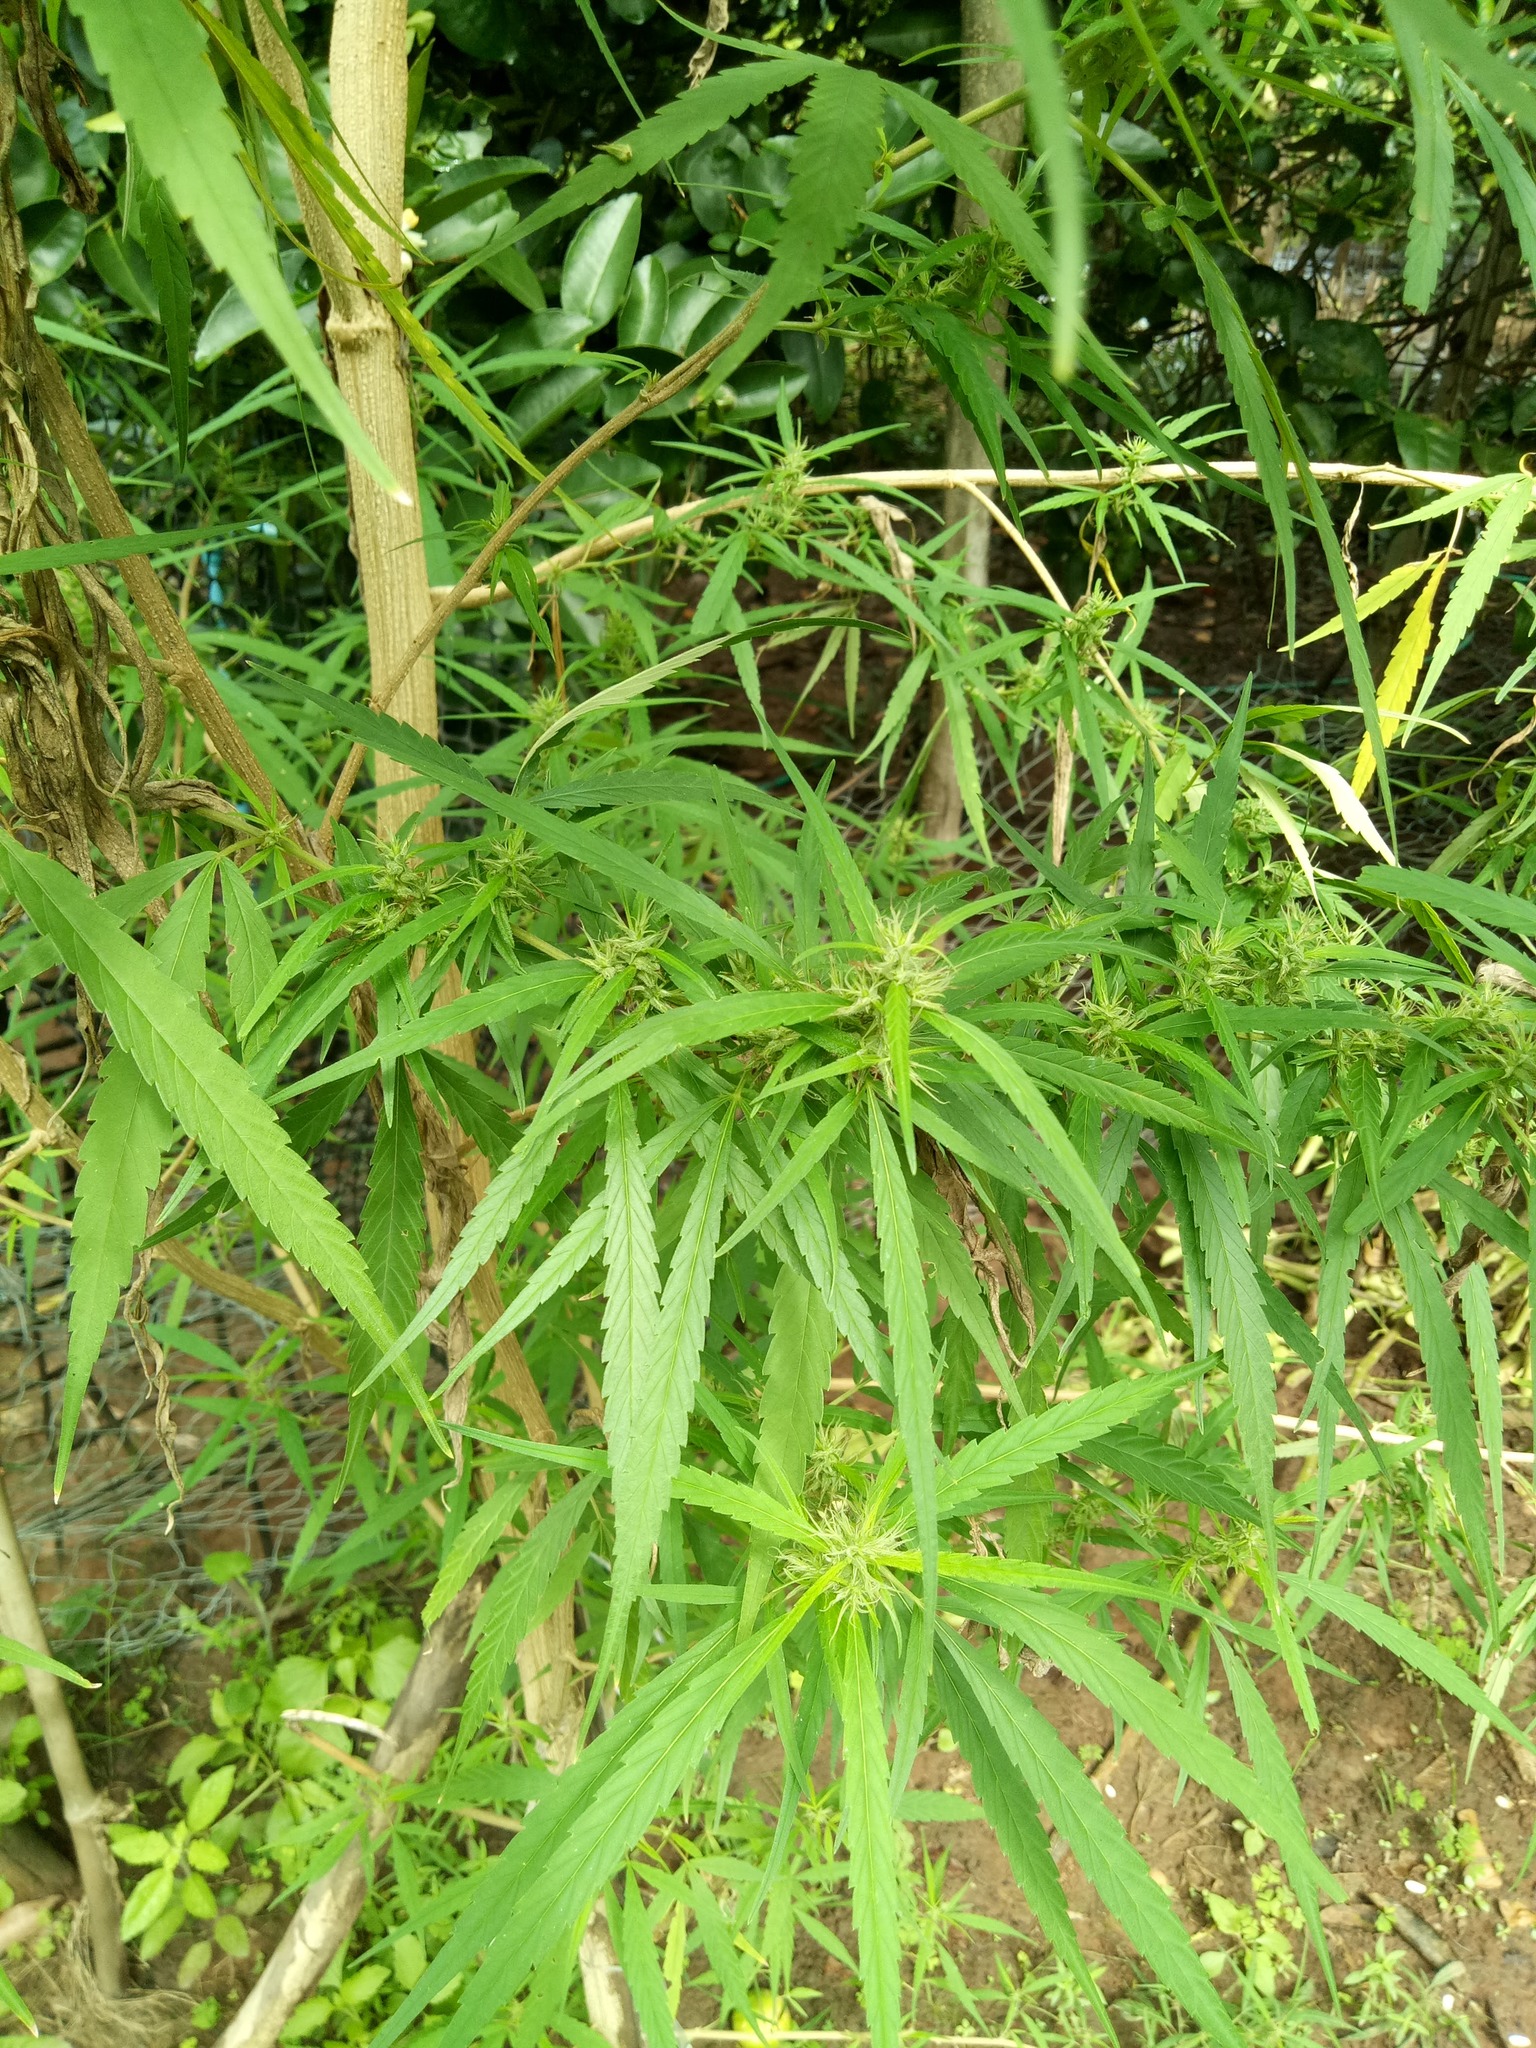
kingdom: Plantae
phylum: Tracheophyta
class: Magnoliopsida
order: Rosales
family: Cannabaceae
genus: Cannabis
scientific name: Cannabis sativa
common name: Hemp
